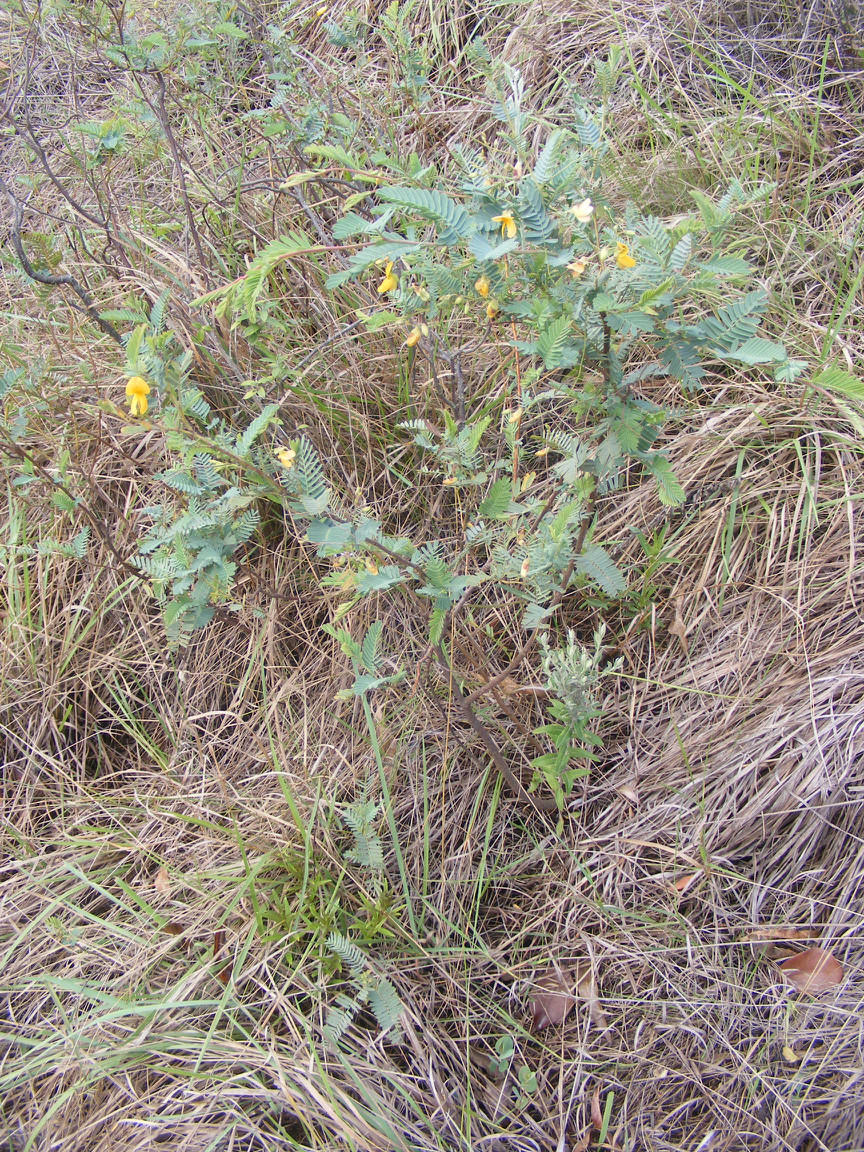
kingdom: Plantae
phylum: Tracheophyta
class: Magnoliopsida
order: Fabales
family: Fabaceae
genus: Aeschynomene
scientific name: Aeschynomene rehmannii
